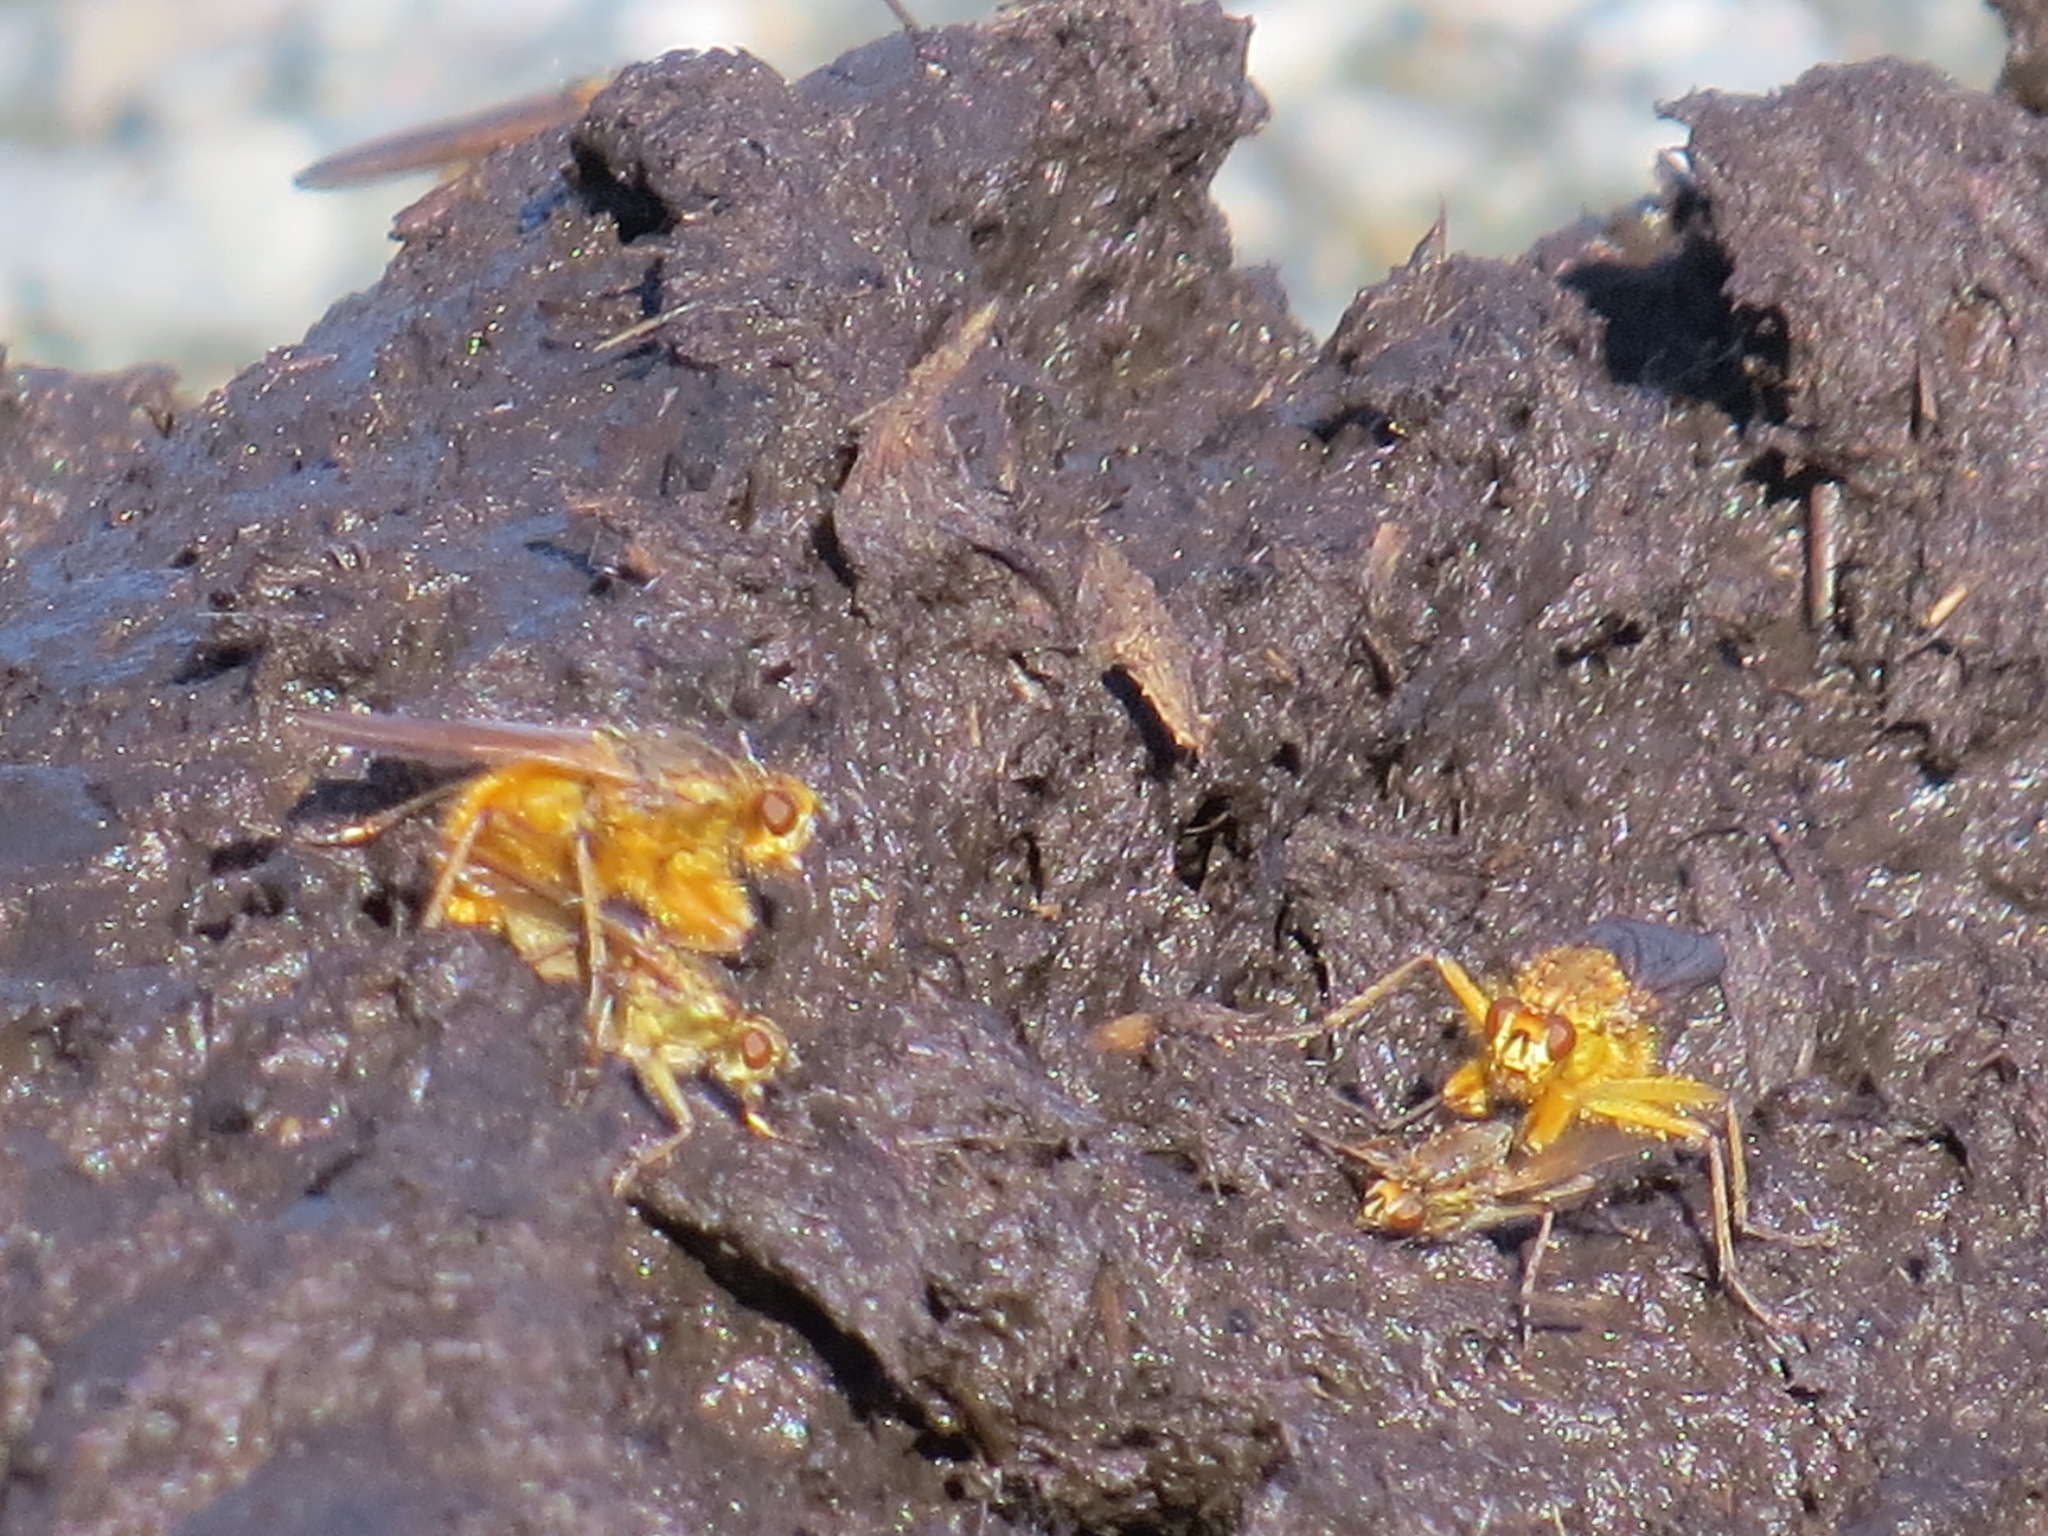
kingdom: Animalia
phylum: Arthropoda
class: Insecta
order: Diptera
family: Scathophagidae
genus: Scathophaga
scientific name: Scathophaga stercoraria
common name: Yellow dung fly
